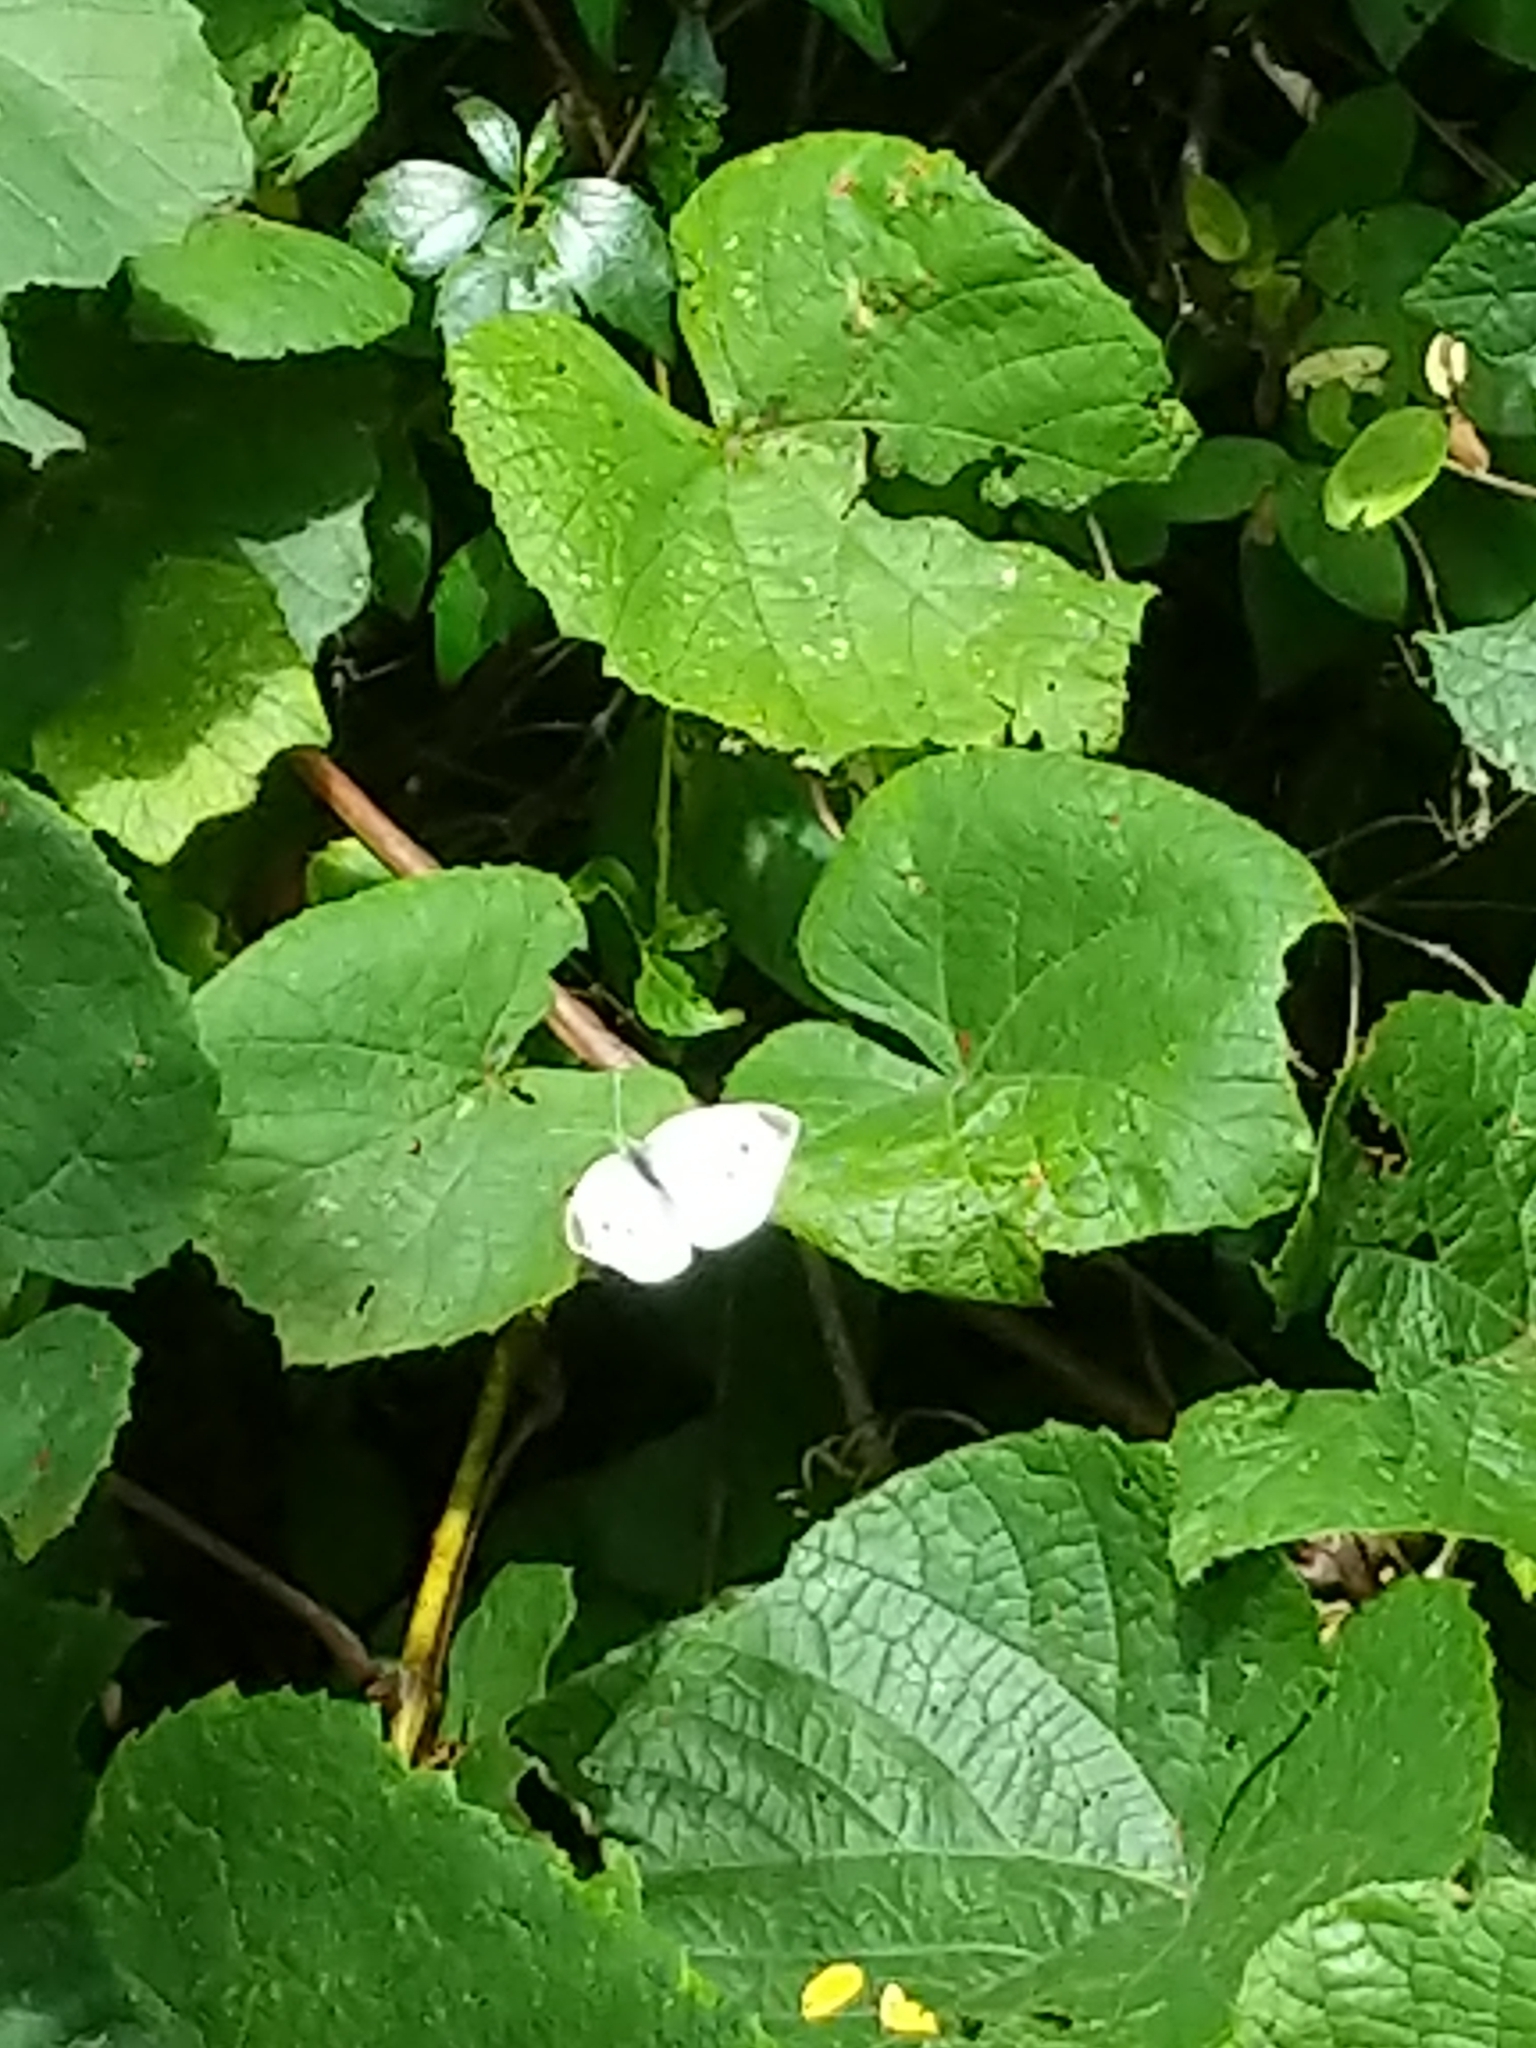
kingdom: Animalia
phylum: Arthropoda
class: Insecta
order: Lepidoptera
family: Pieridae
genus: Pieris
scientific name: Pieris rapae
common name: Small white
